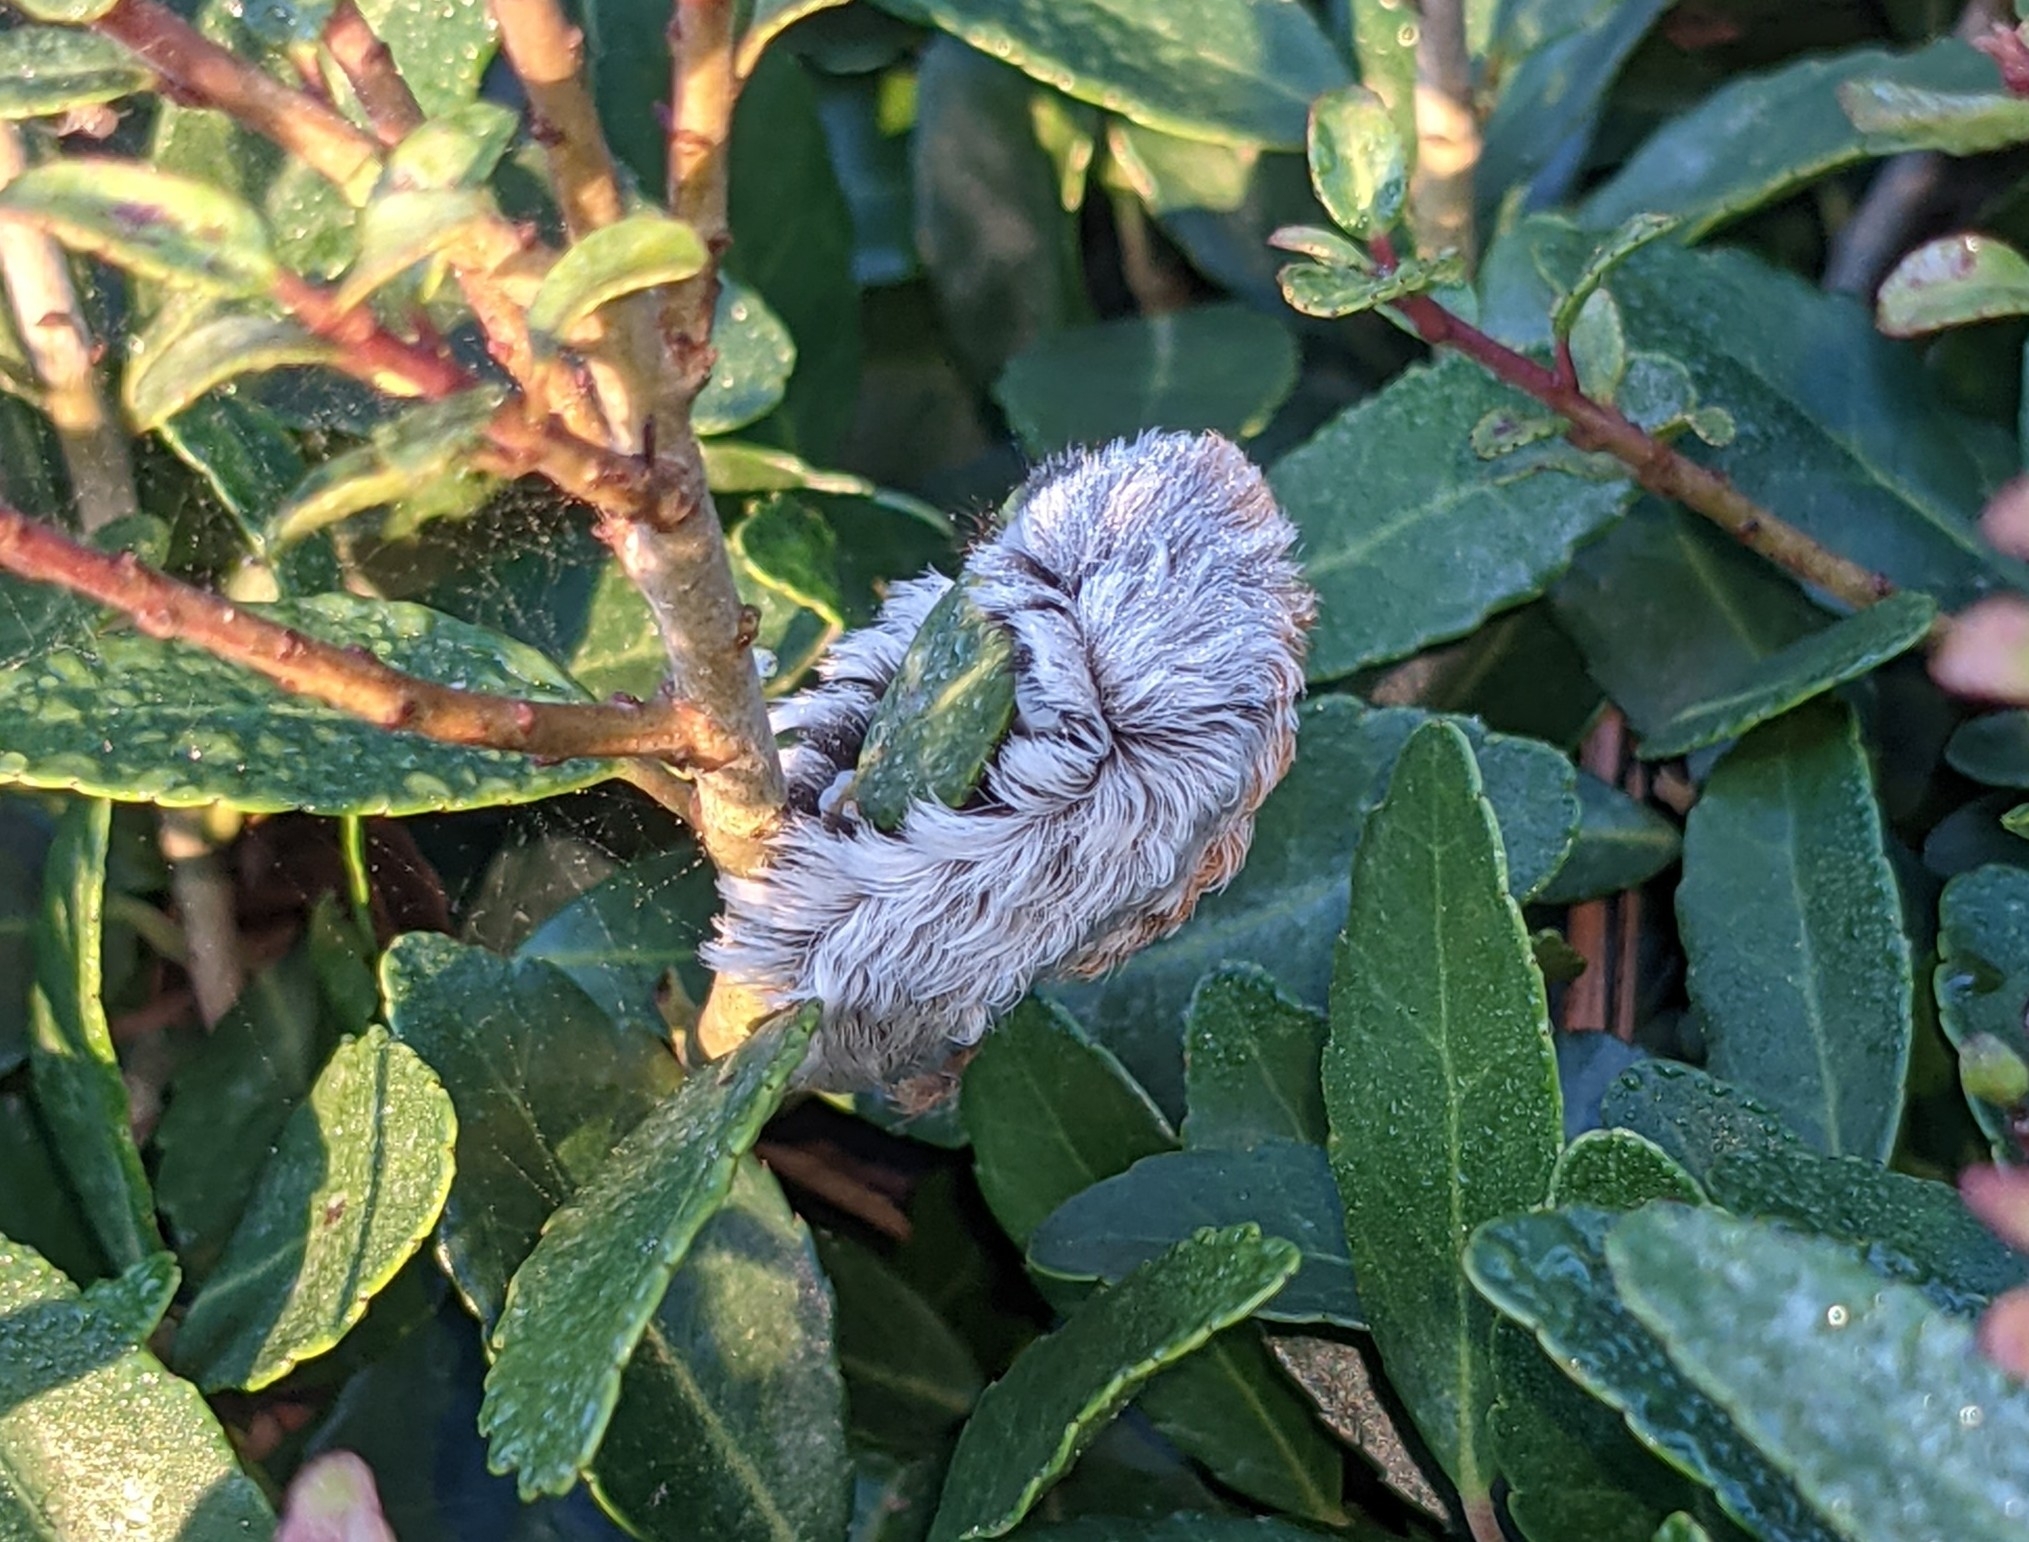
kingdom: Animalia
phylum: Arthropoda
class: Insecta
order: Lepidoptera
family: Megalopygidae
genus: Megalopyge
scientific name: Megalopyge opercularis
